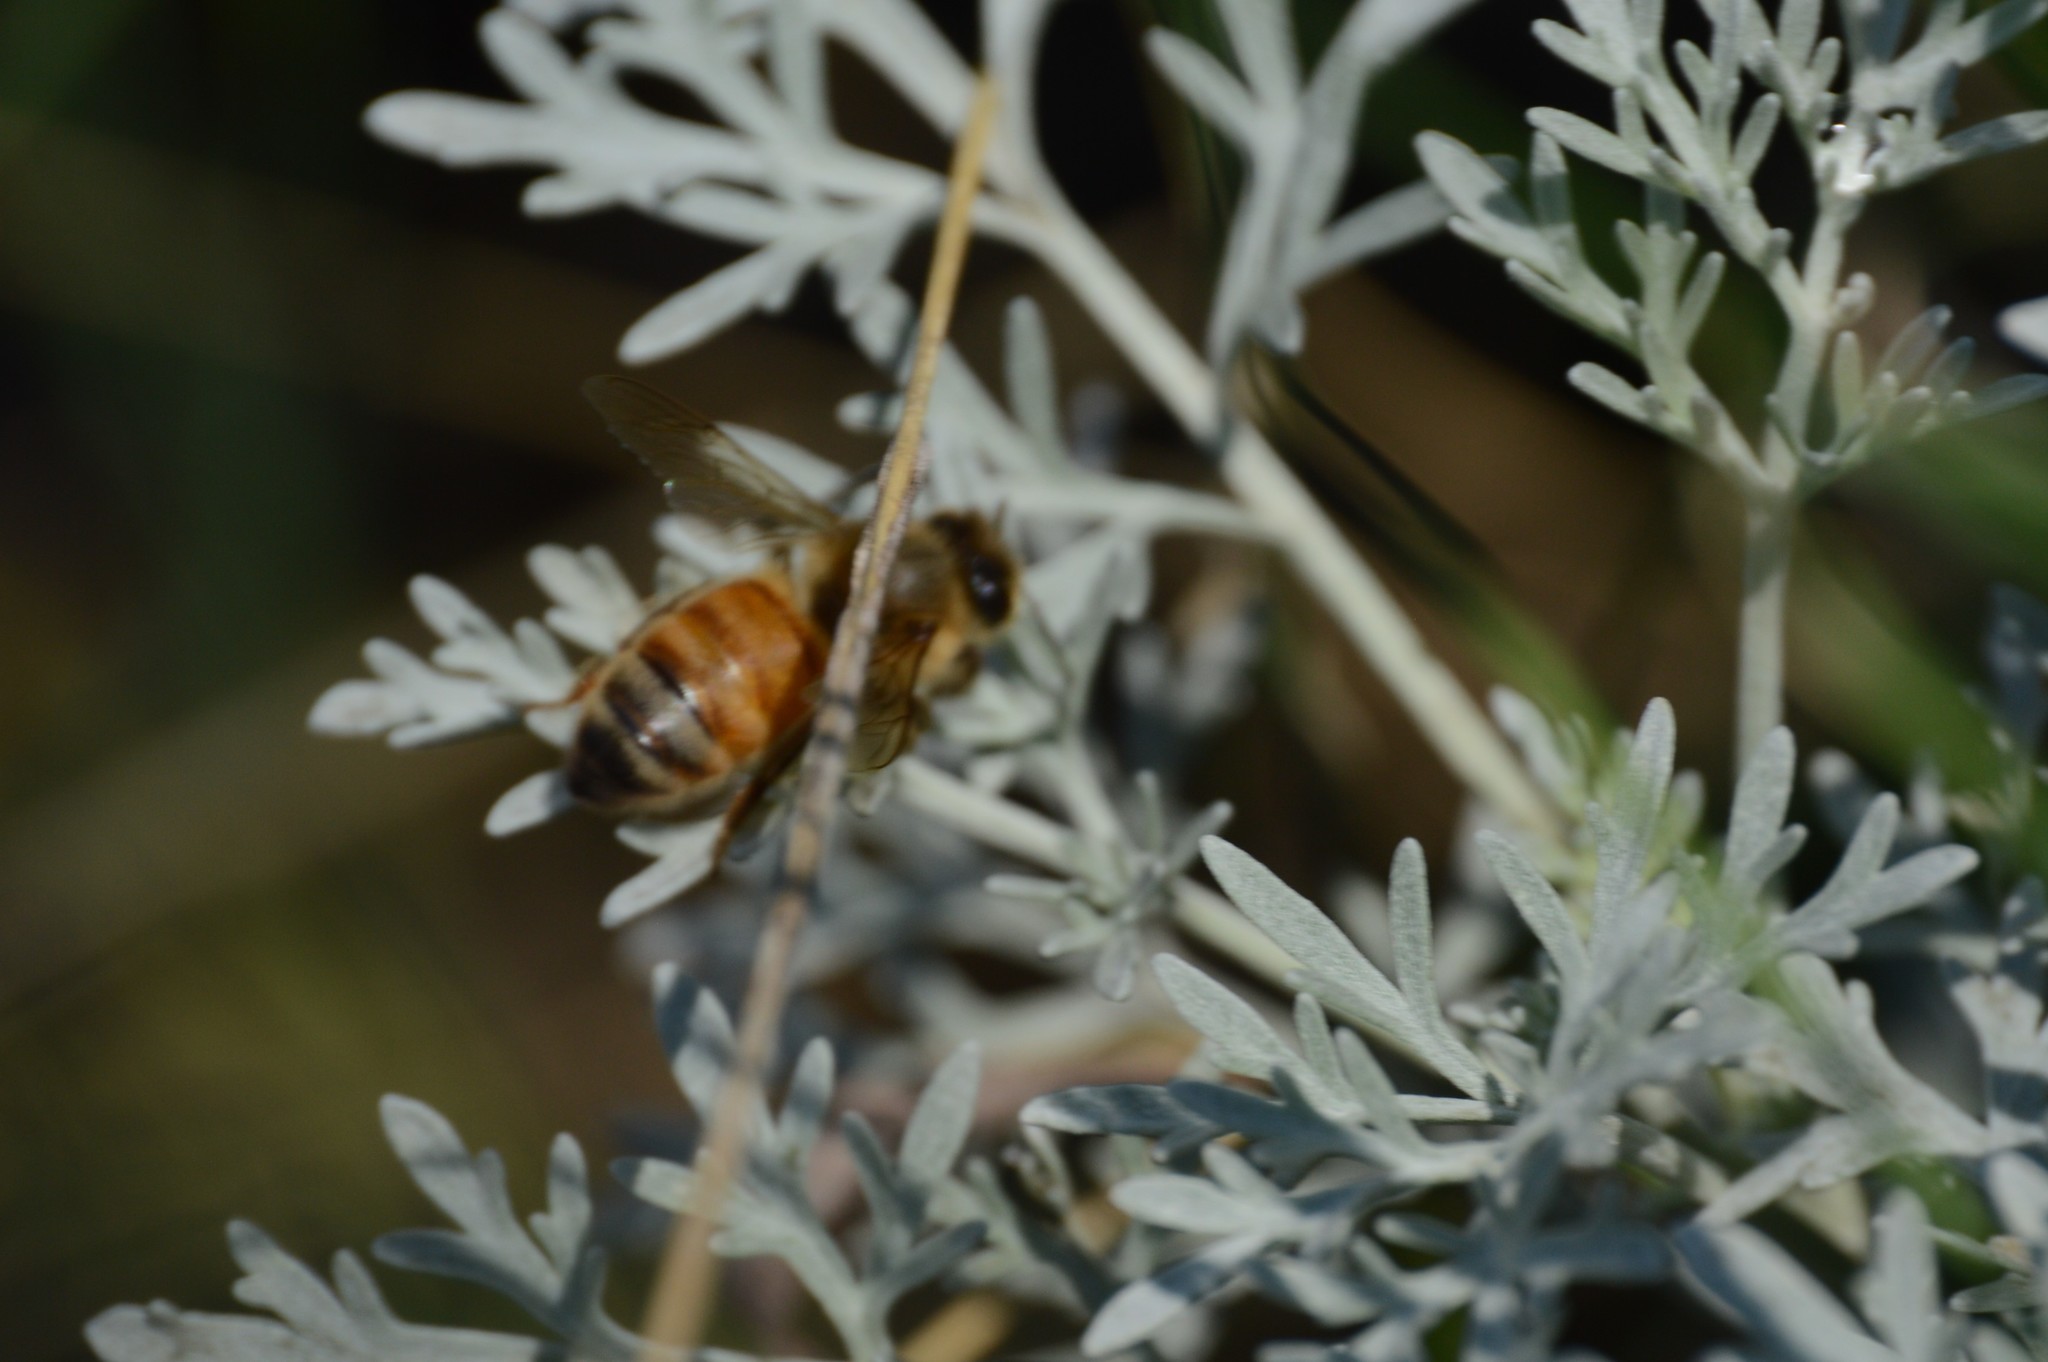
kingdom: Animalia
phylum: Arthropoda
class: Insecta
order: Hymenoptera
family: Apidae
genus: Apis
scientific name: Apis mellifera
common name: Honey bee
